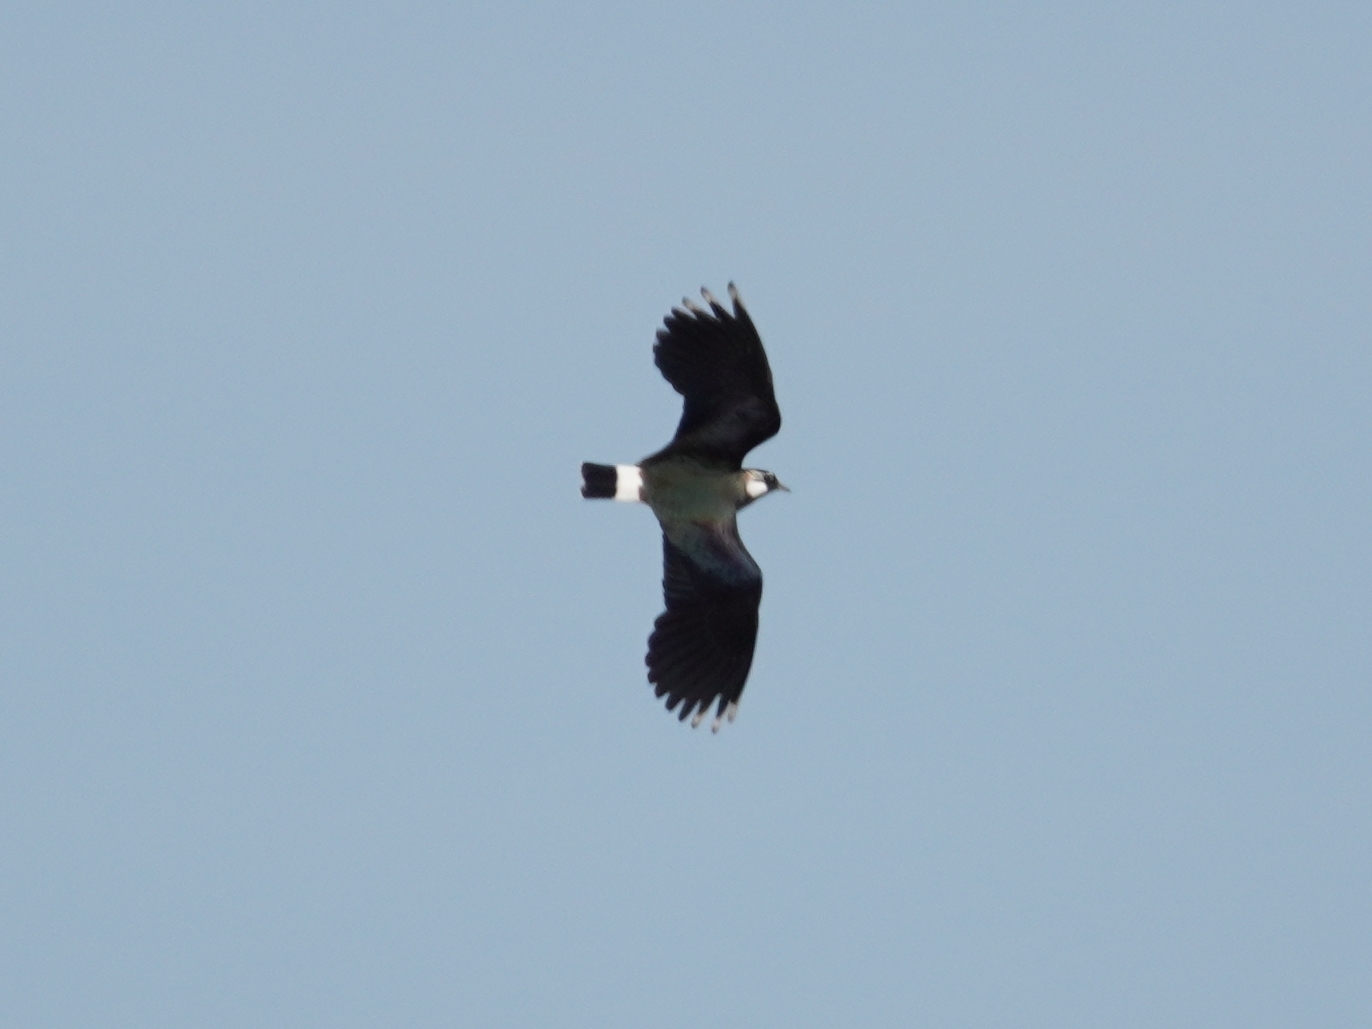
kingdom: Animalia
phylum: Chordata
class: Aves
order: Charadriiformes
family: Charadriidae
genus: Vanellus
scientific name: Vanellus vanellus
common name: Northern lapwing
